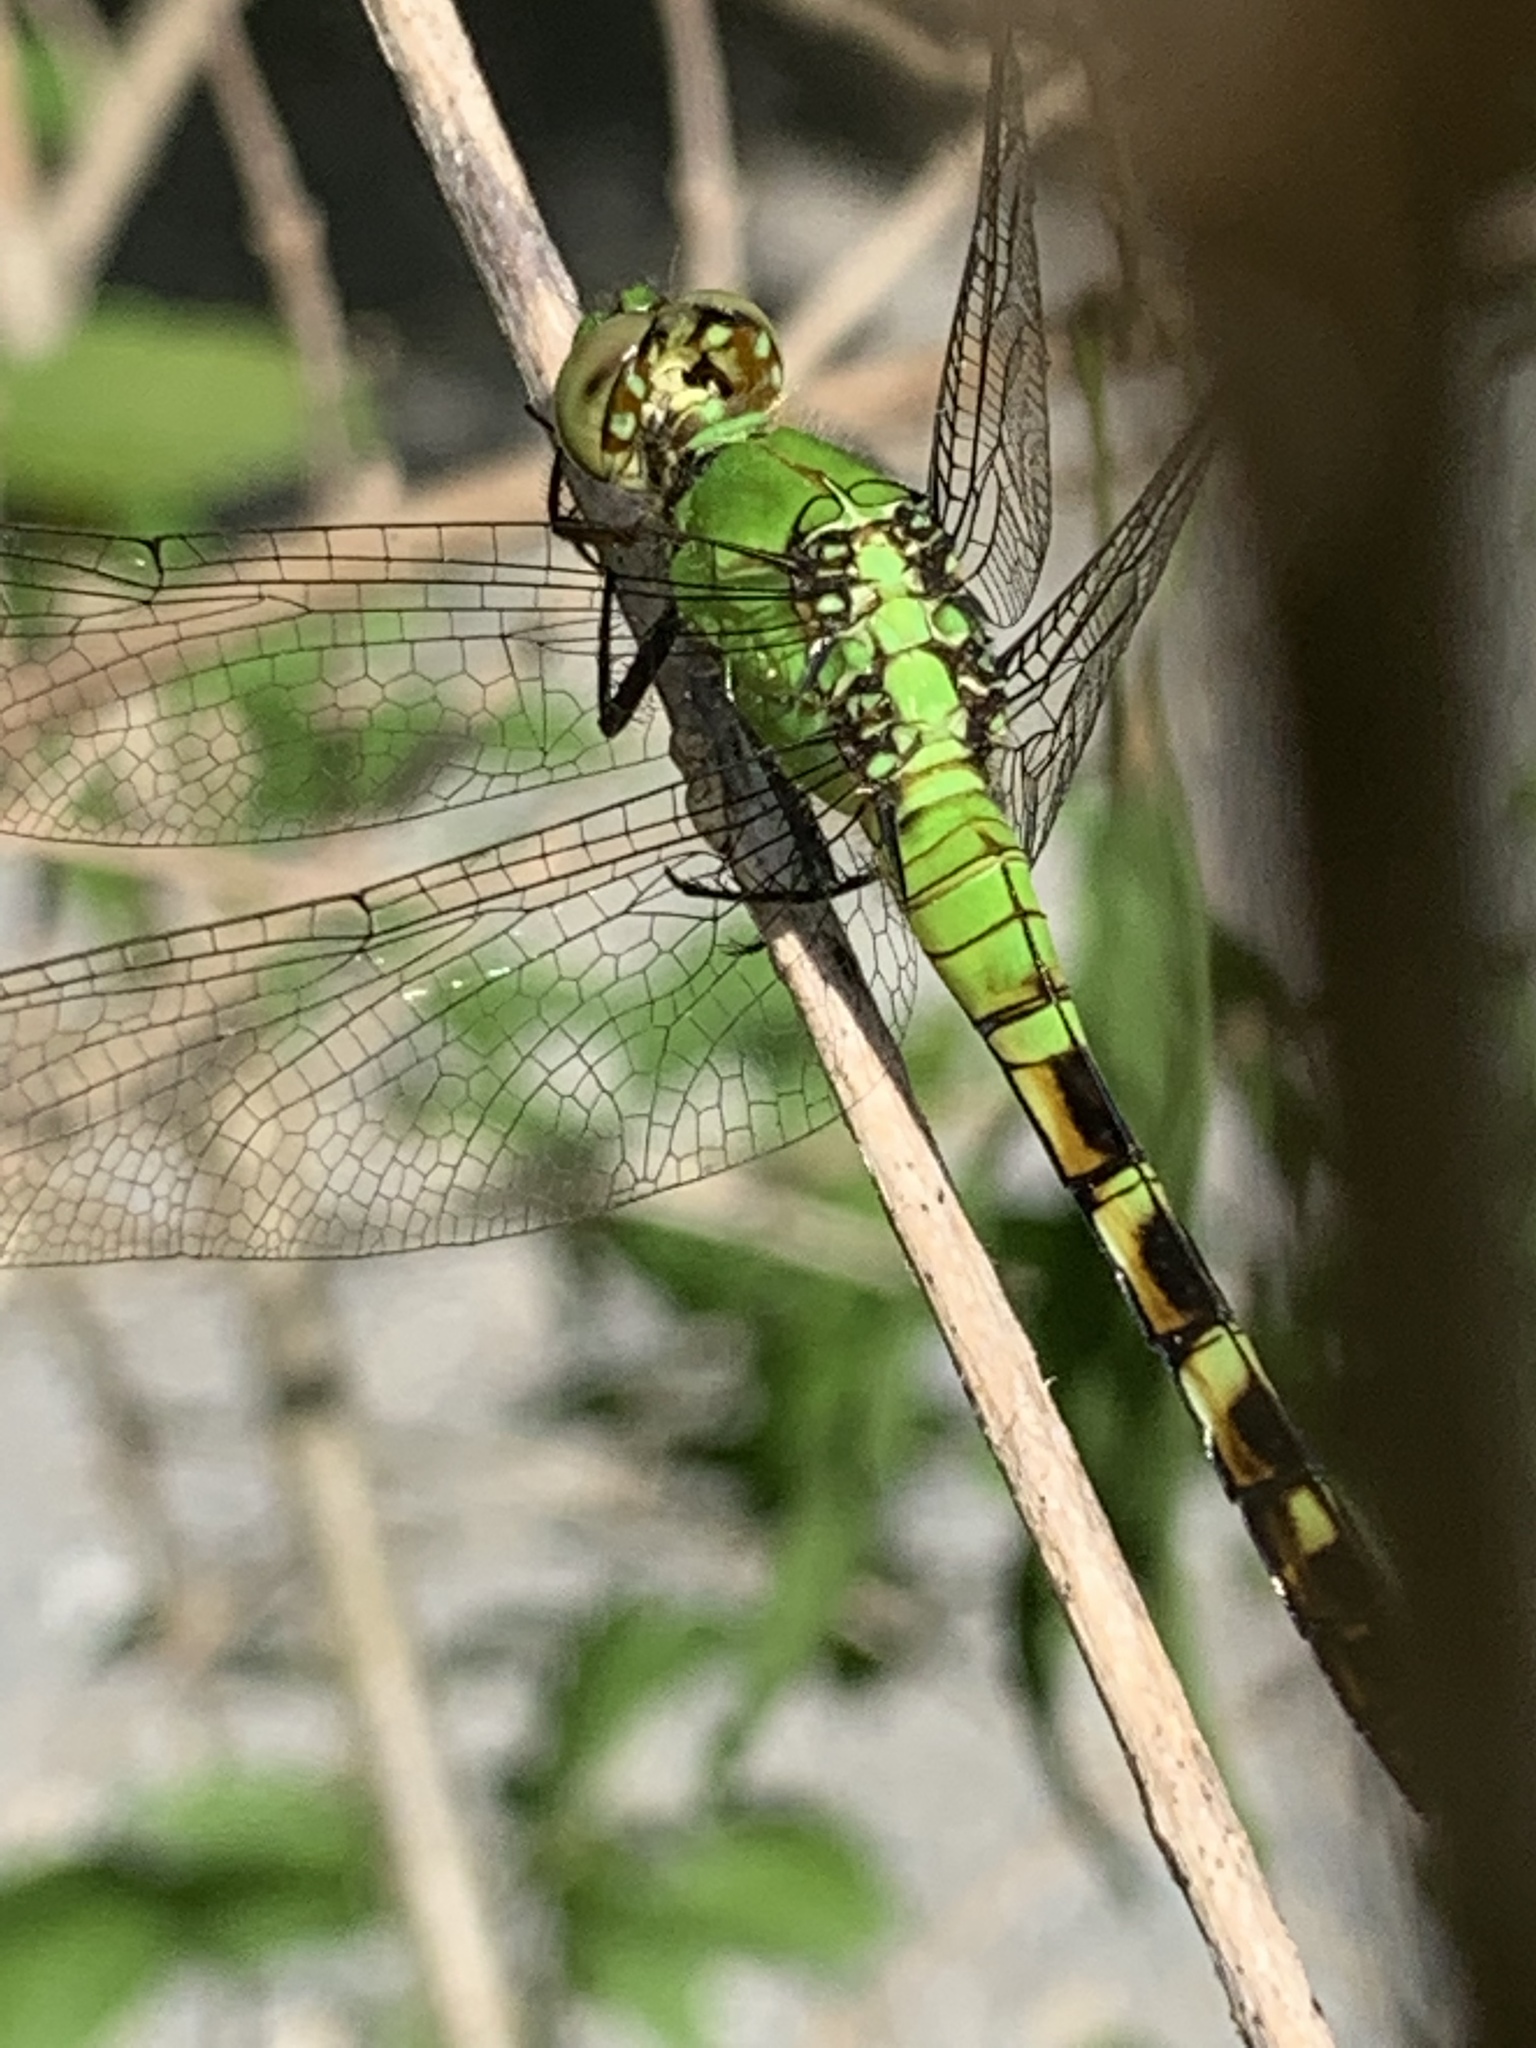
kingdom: Animalia
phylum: Arthropoda
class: Insecta
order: Odonata
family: Libellulidae
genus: Erythemis
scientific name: Erythemis simplicicollis
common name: Eastern pondhawk
